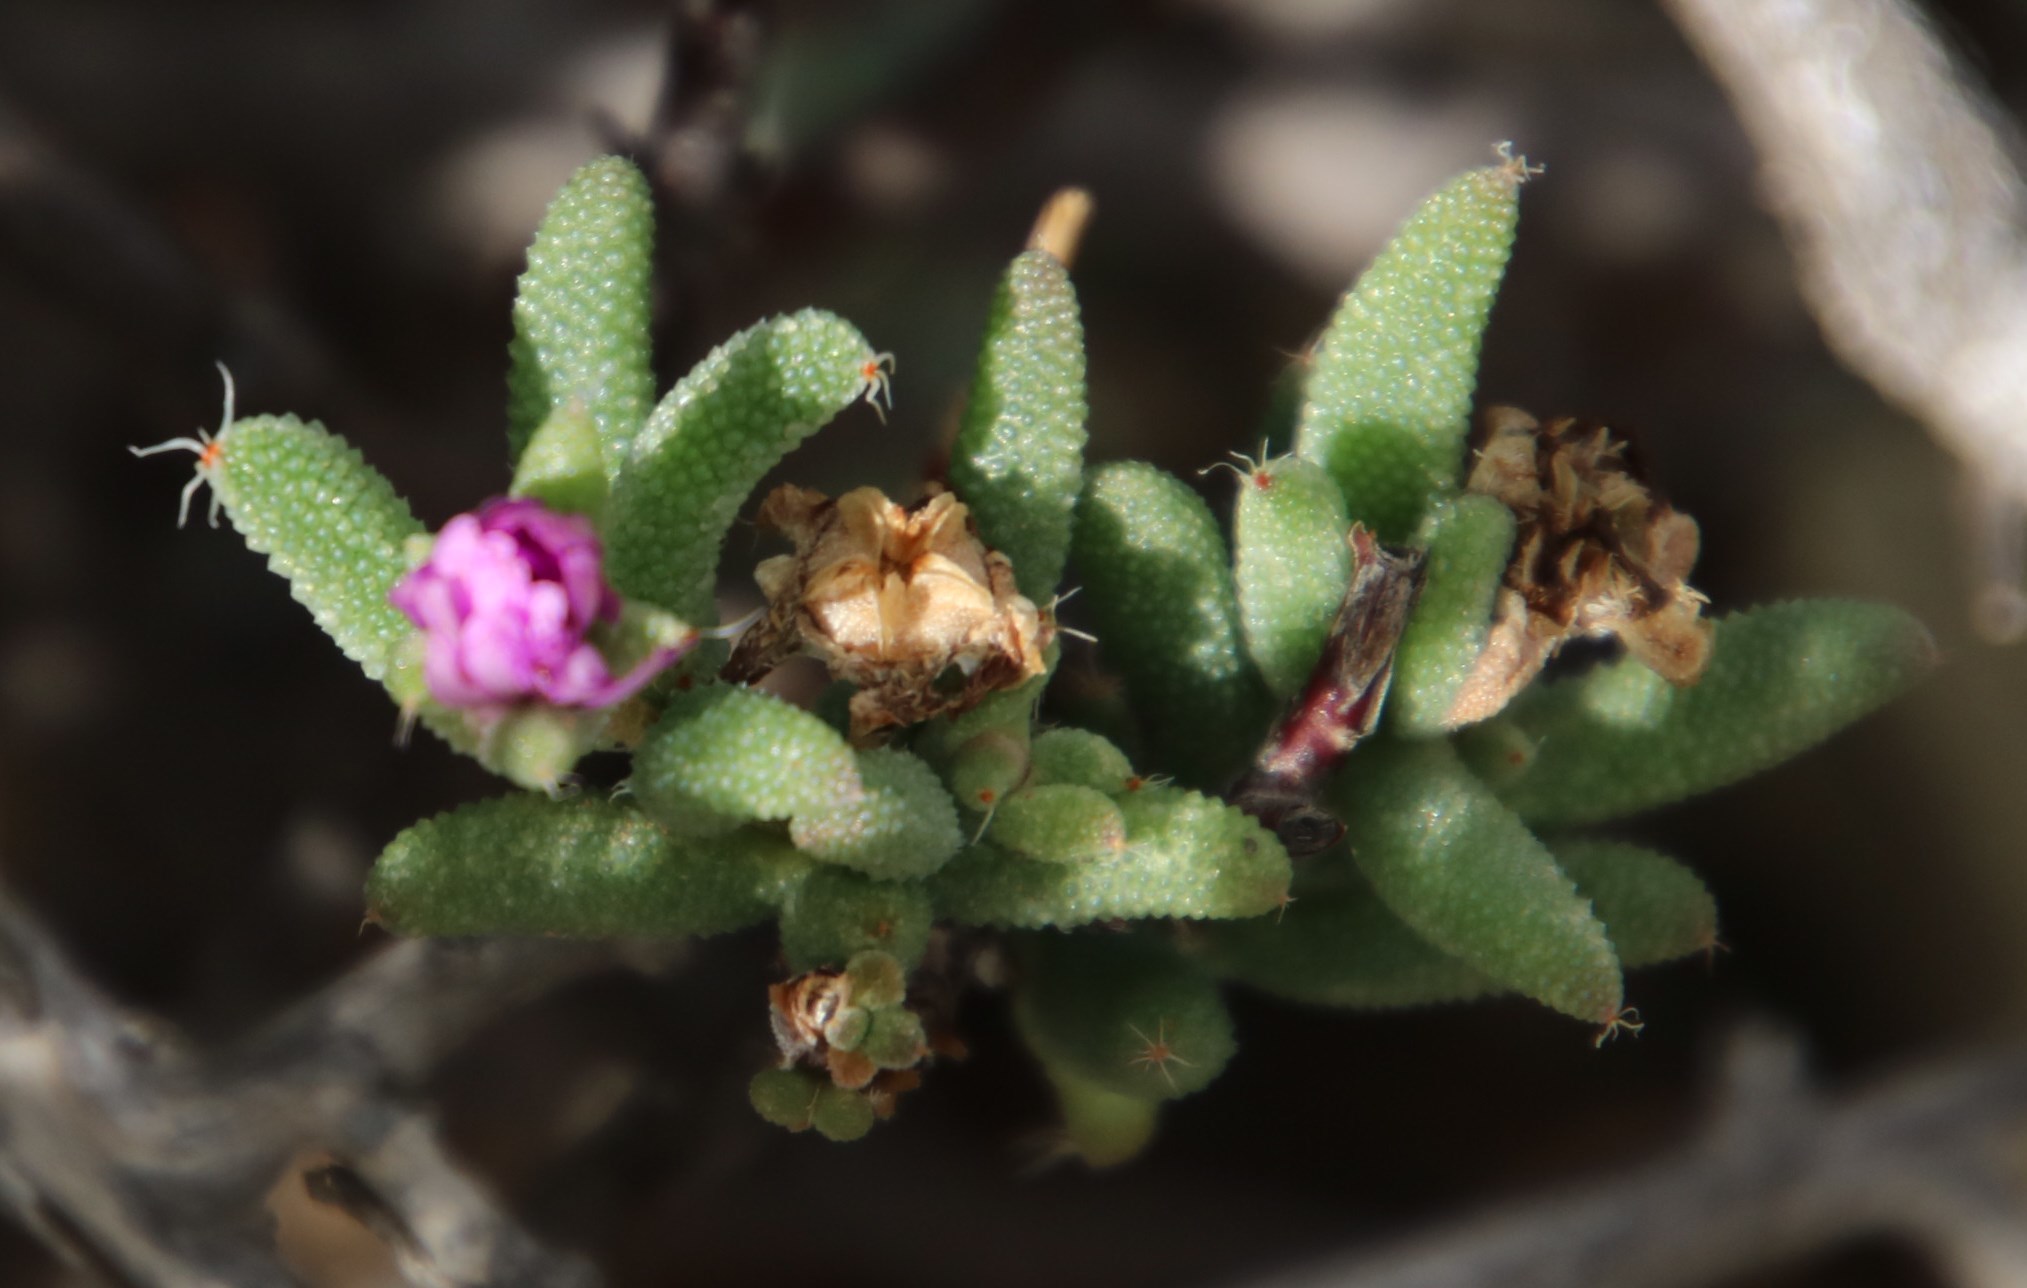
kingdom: Plantae
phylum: Tracheophyta
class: Magnoliopsida
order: Caryophyllales
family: Aizoaceae
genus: Trichodiadema
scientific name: Trichodiadema setuliferum
